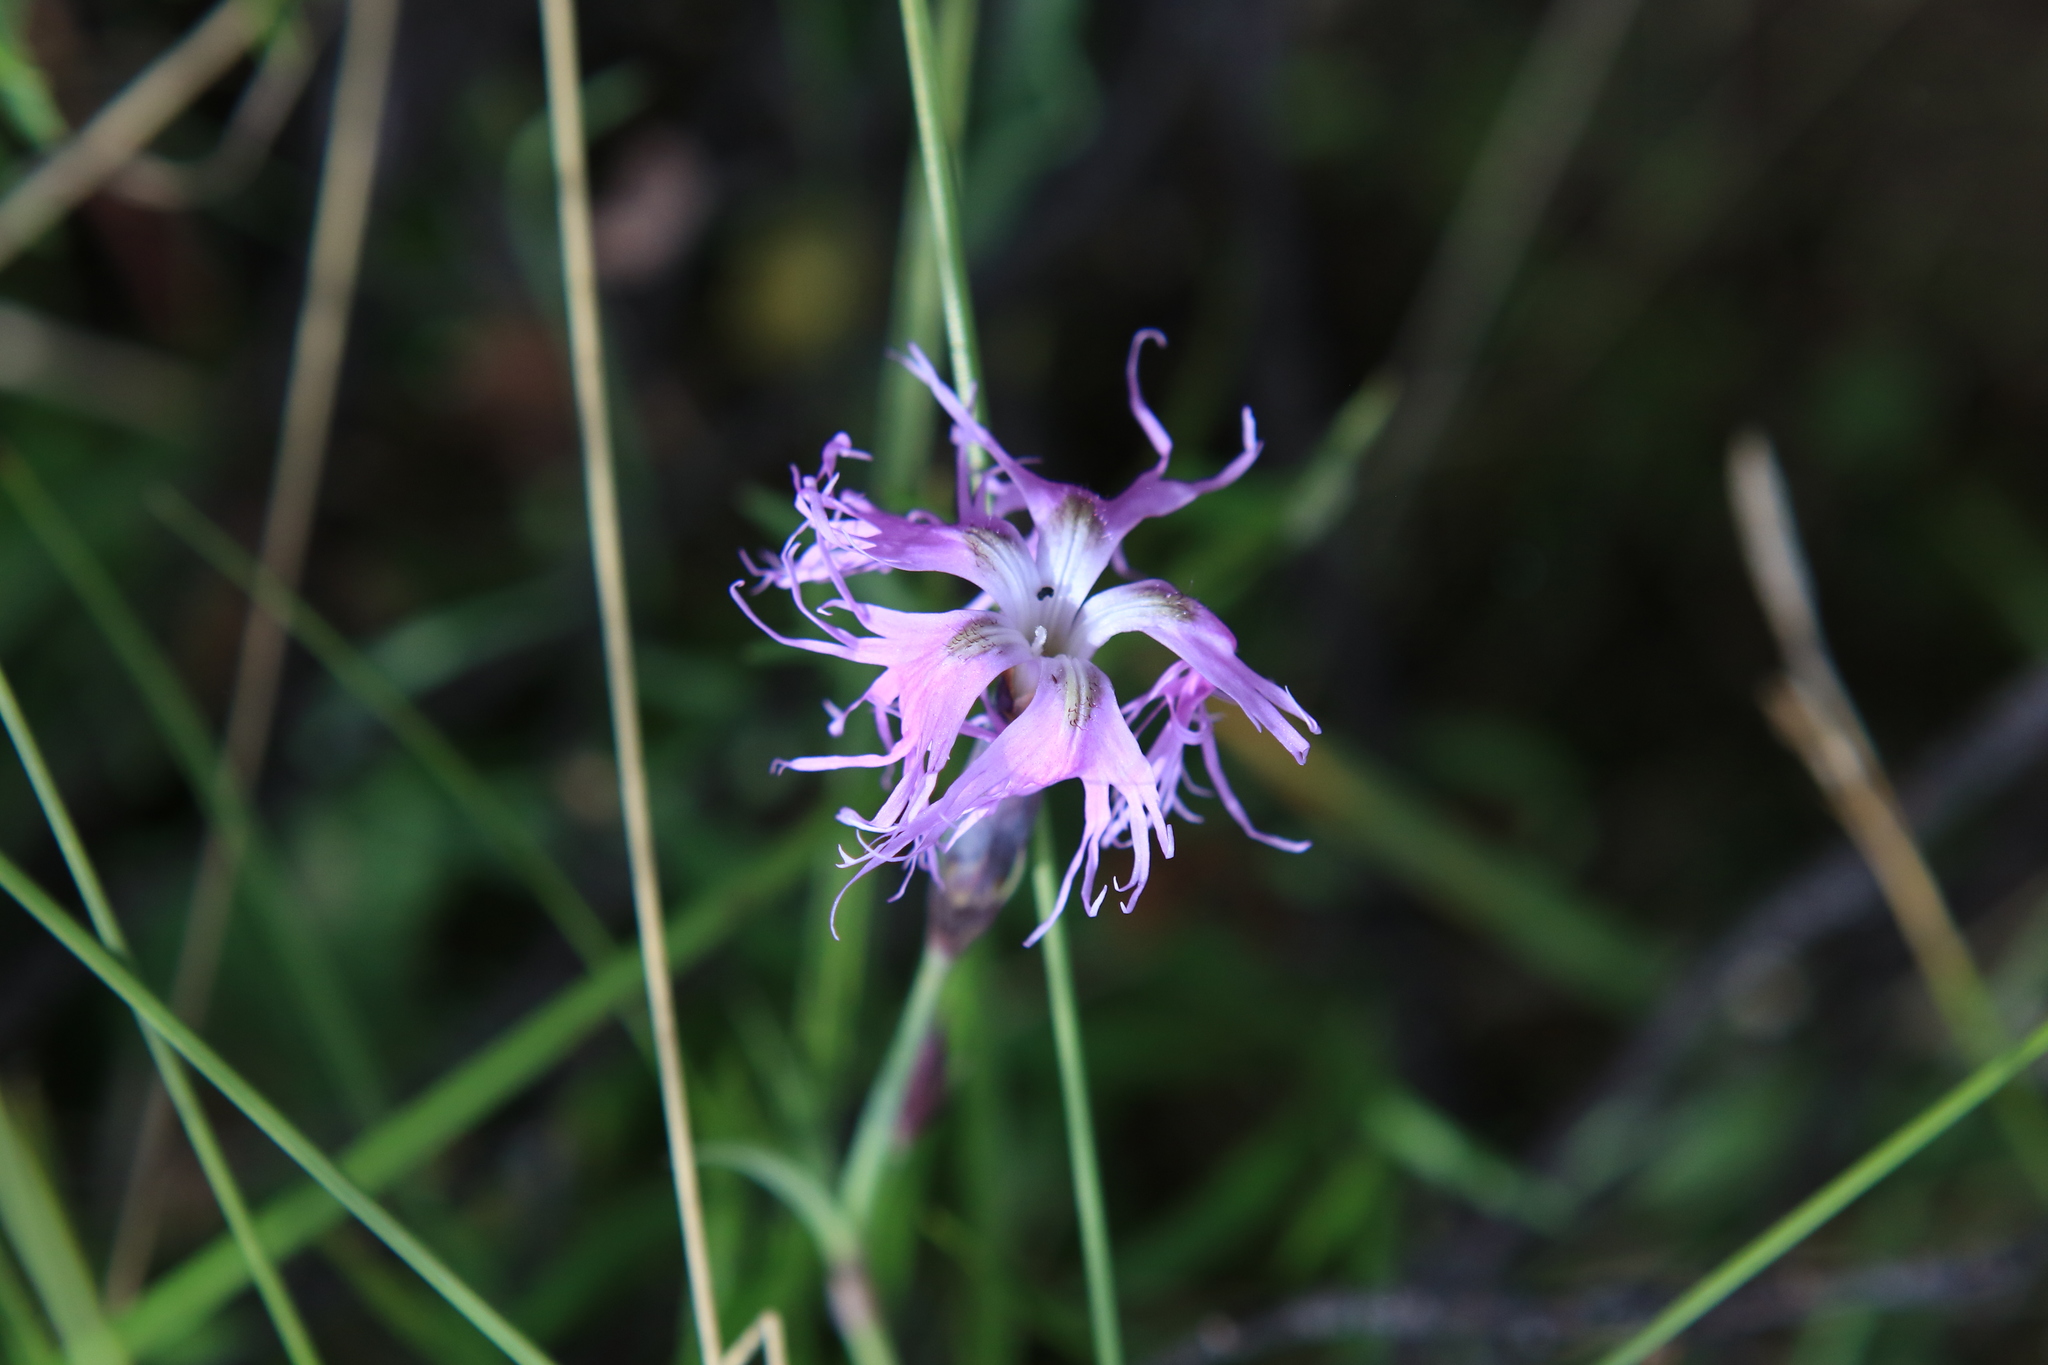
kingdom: Plantae
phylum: Tracheophyta
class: Magnoliopsida
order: Caryophyllales
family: Caryophyllaceae
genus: Dianthus
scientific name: Dianthus superbus
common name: Fringed pink
